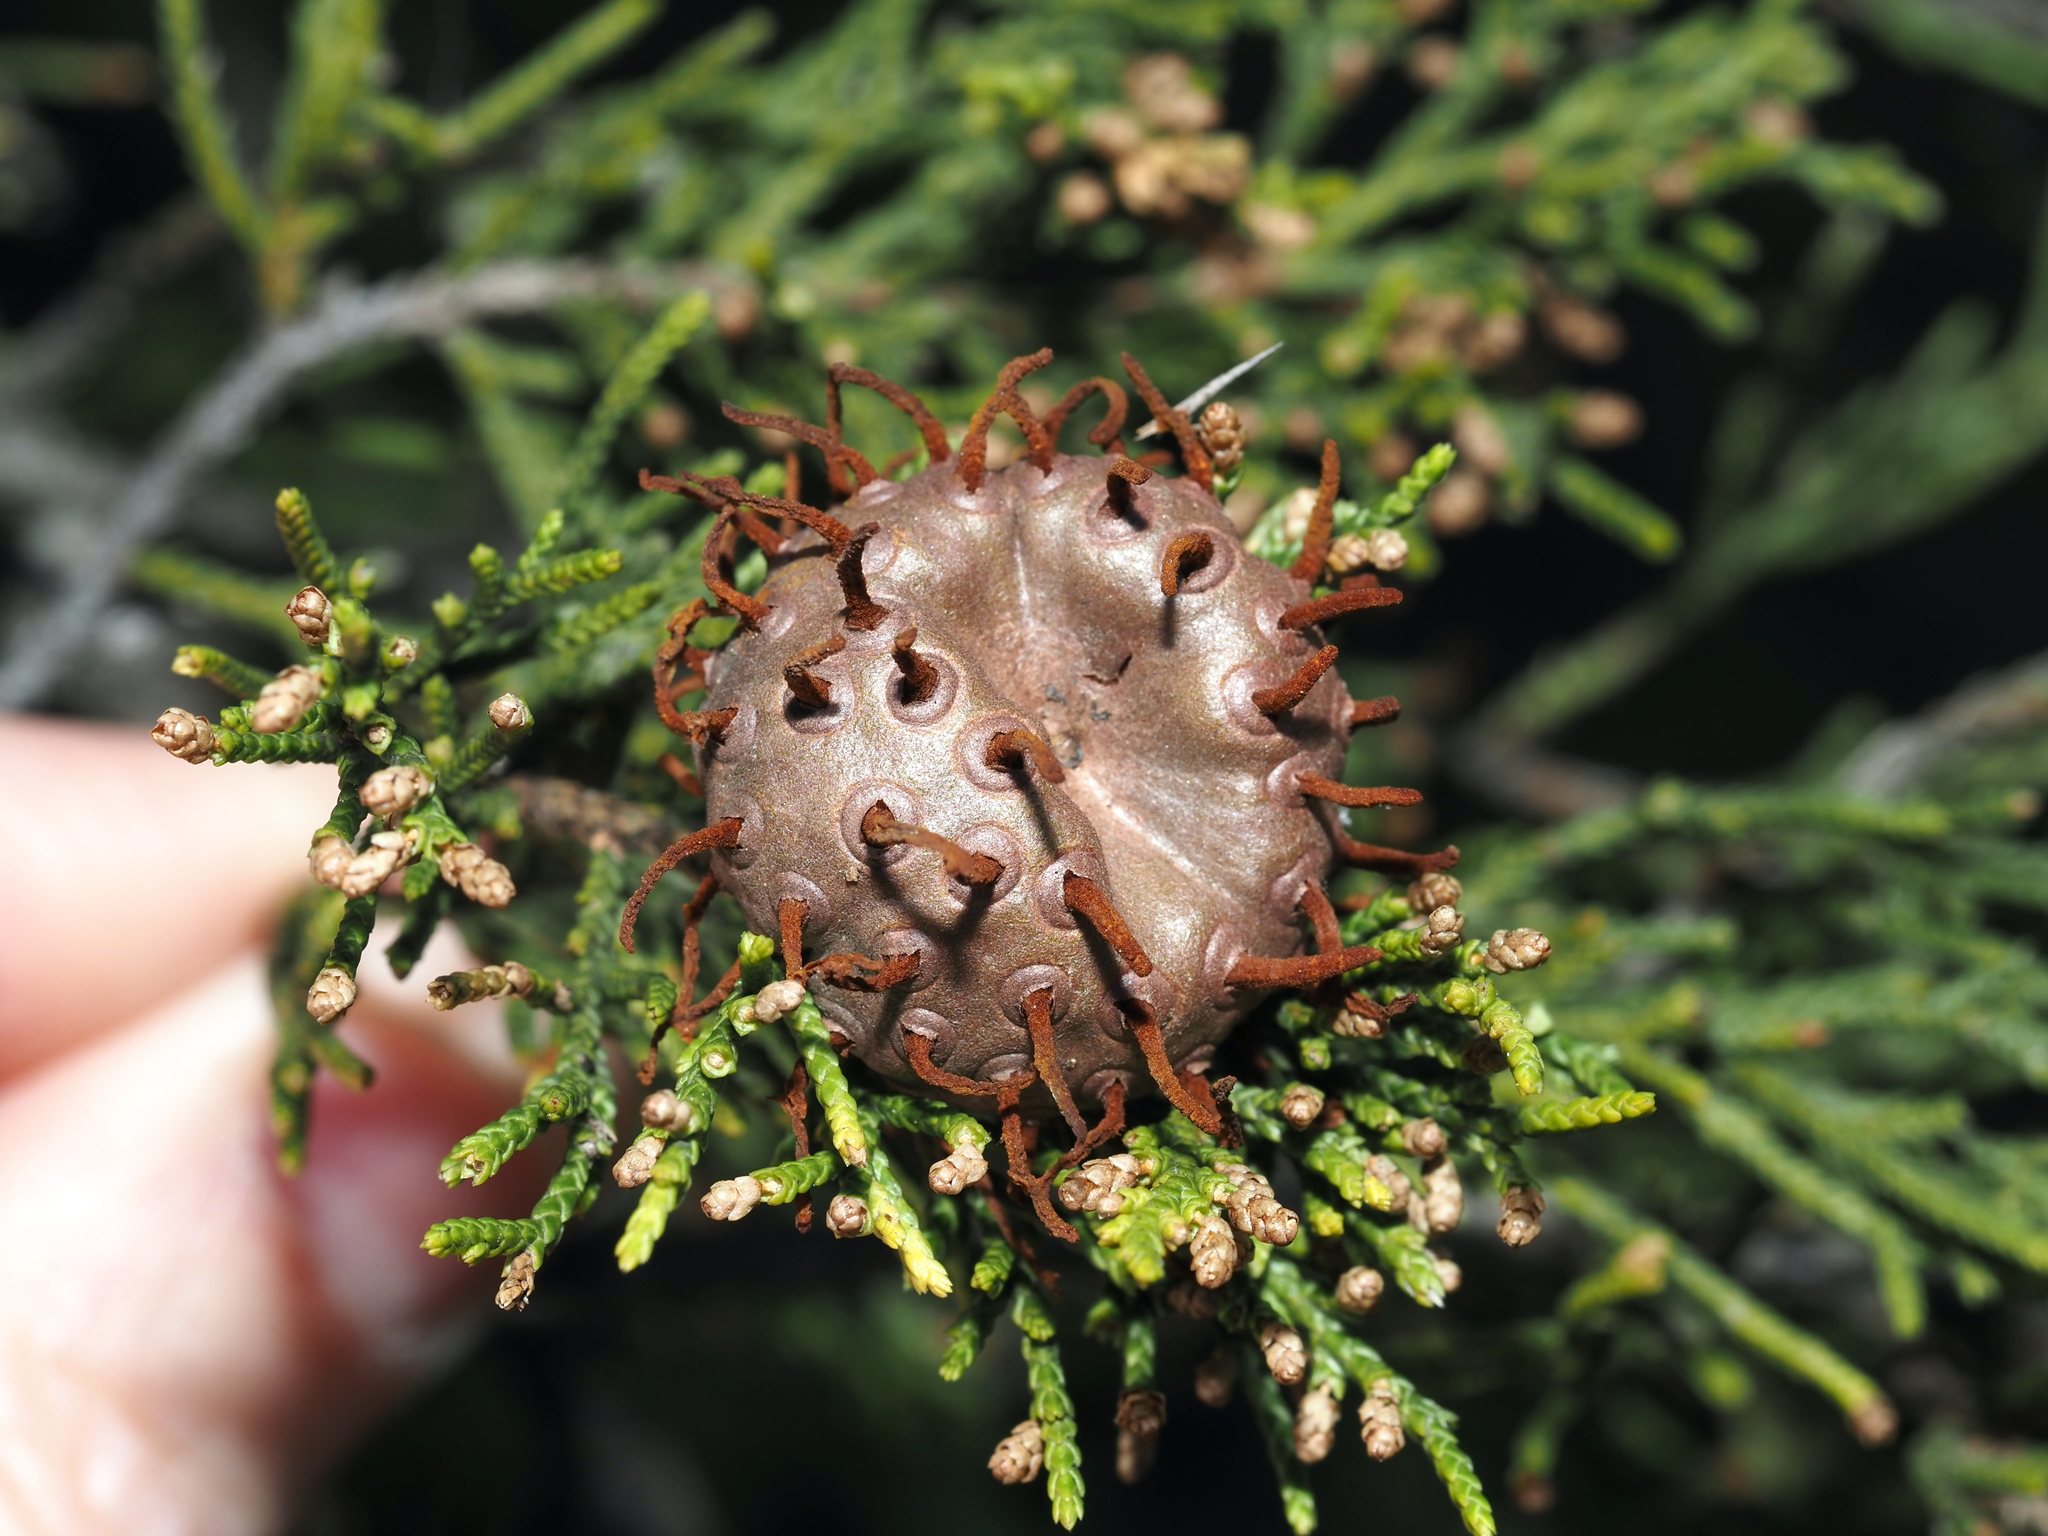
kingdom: Fungi
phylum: Basidiomycota
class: Pucciniomycetes
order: Pucciniales
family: Gymnosporangiaceae
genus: Gymnosporangium
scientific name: Gymnosporangium juniperi-virginianae
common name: Juniper-apple rust
